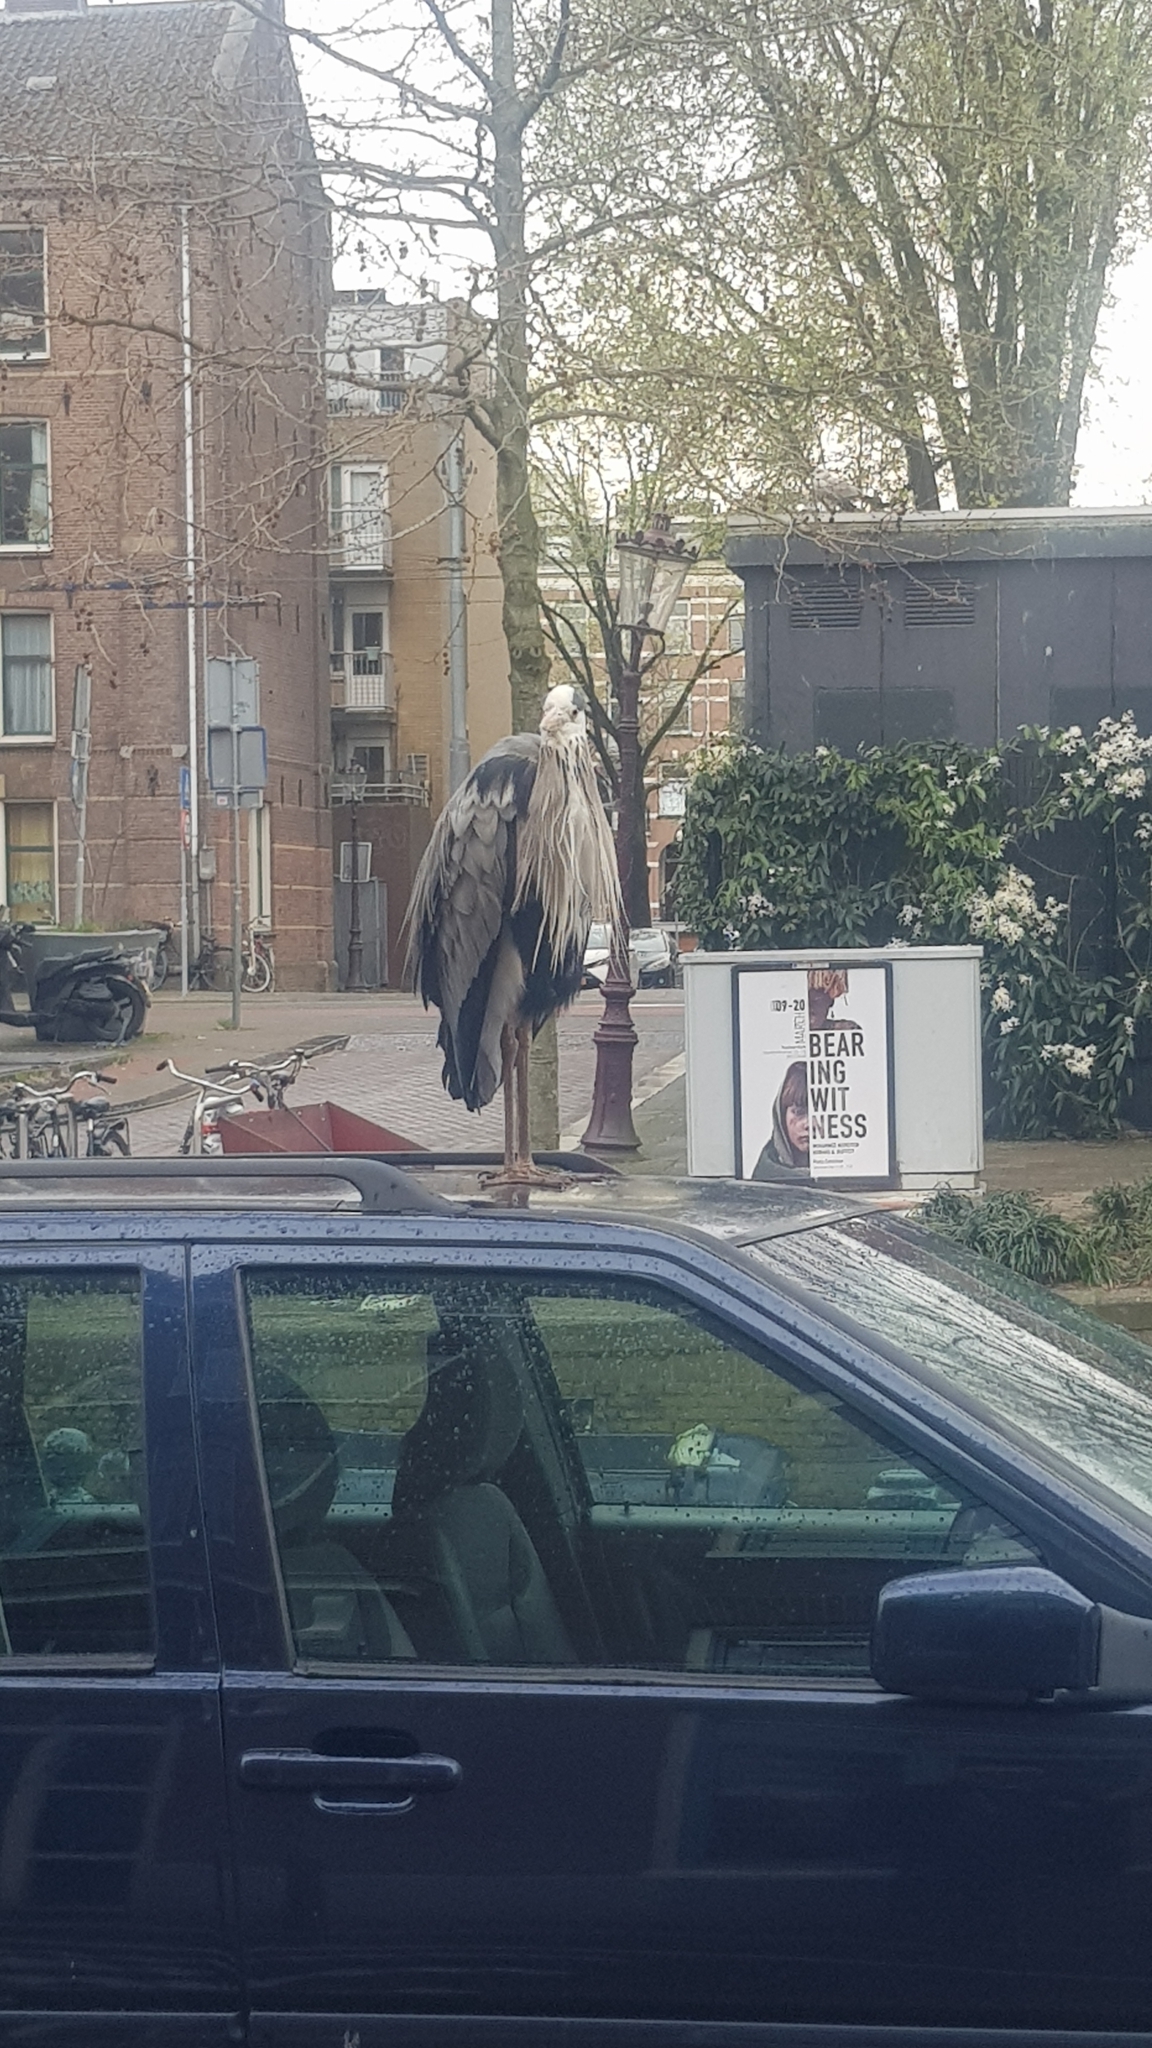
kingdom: Animalia
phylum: Chordata
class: Aves
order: Pelecaniformes
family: Ardeidae
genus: Ardea
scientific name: Ardea cinerea
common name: Grey heron
